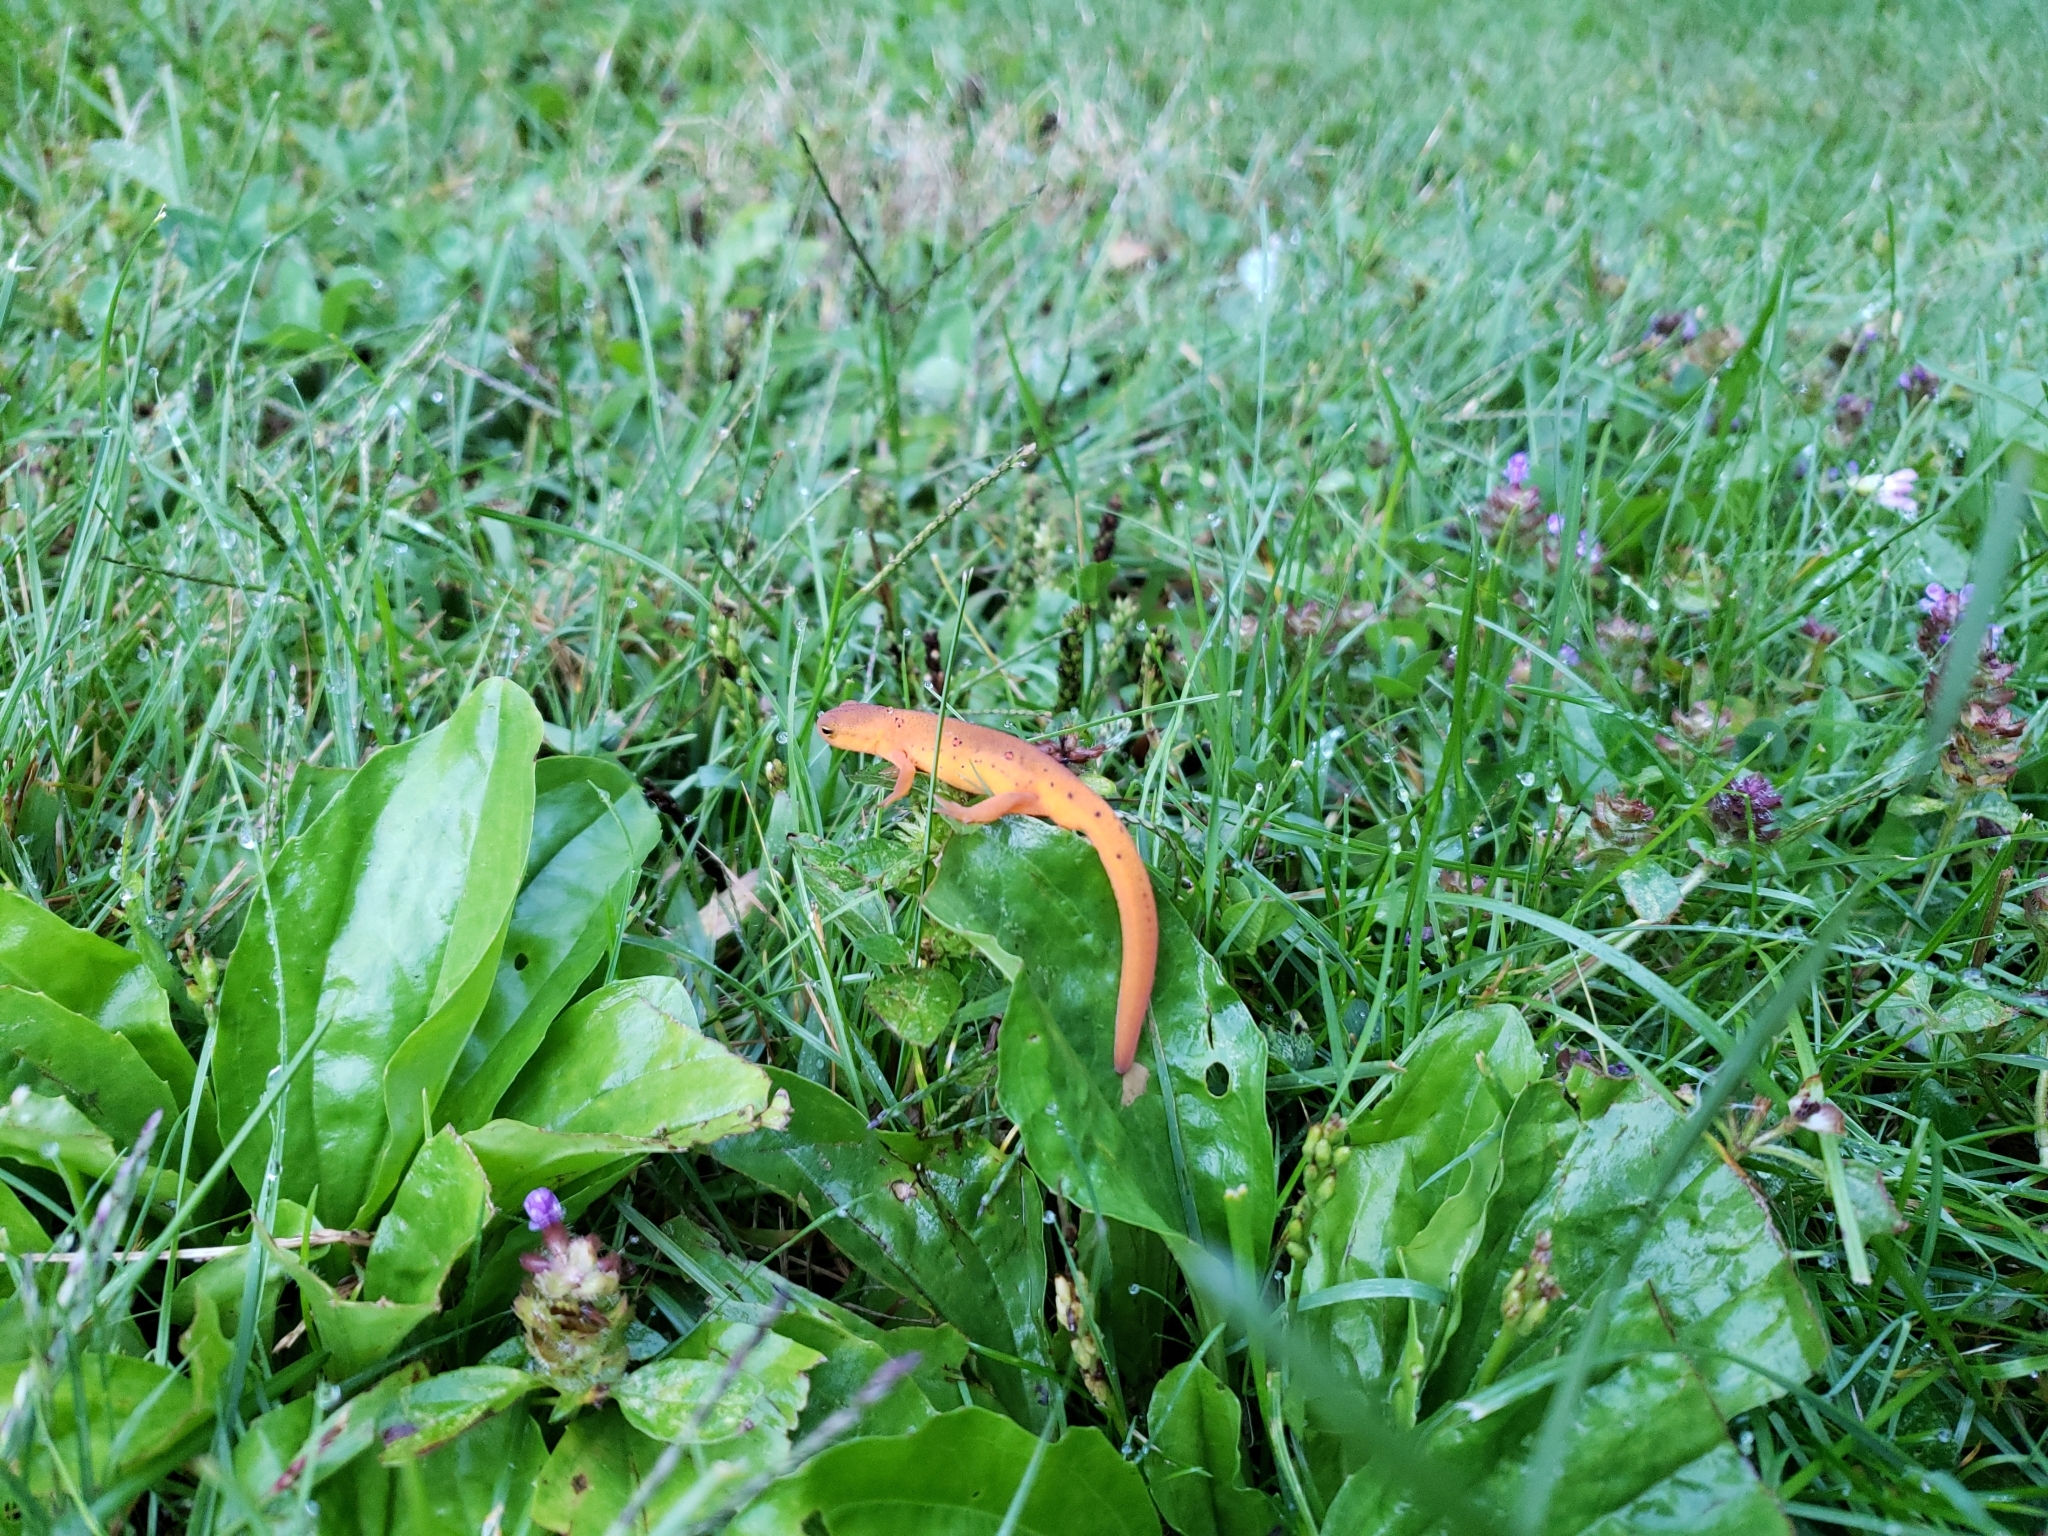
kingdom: Animalia
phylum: Chordata
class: Amphibia
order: Caudata
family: Salamandridae
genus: Notophthalmus
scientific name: Notophthalmus viridescens
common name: Eastern newt
